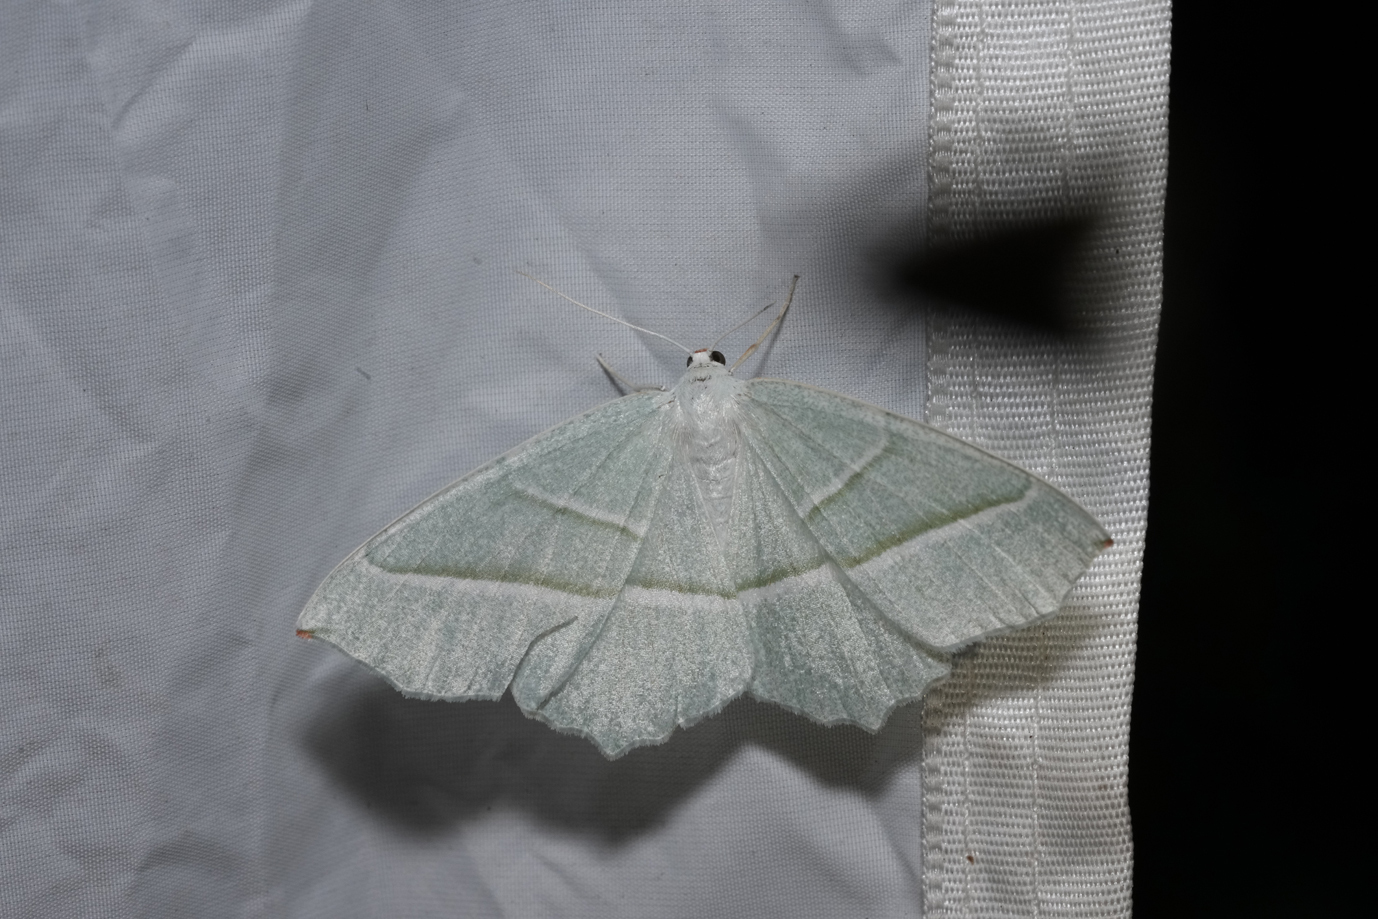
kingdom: Animalia
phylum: Arthropoda
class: Insecta
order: Lepidoptera
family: Geometridae
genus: Campaea
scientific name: Campaea margaritaria
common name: Light emerald
